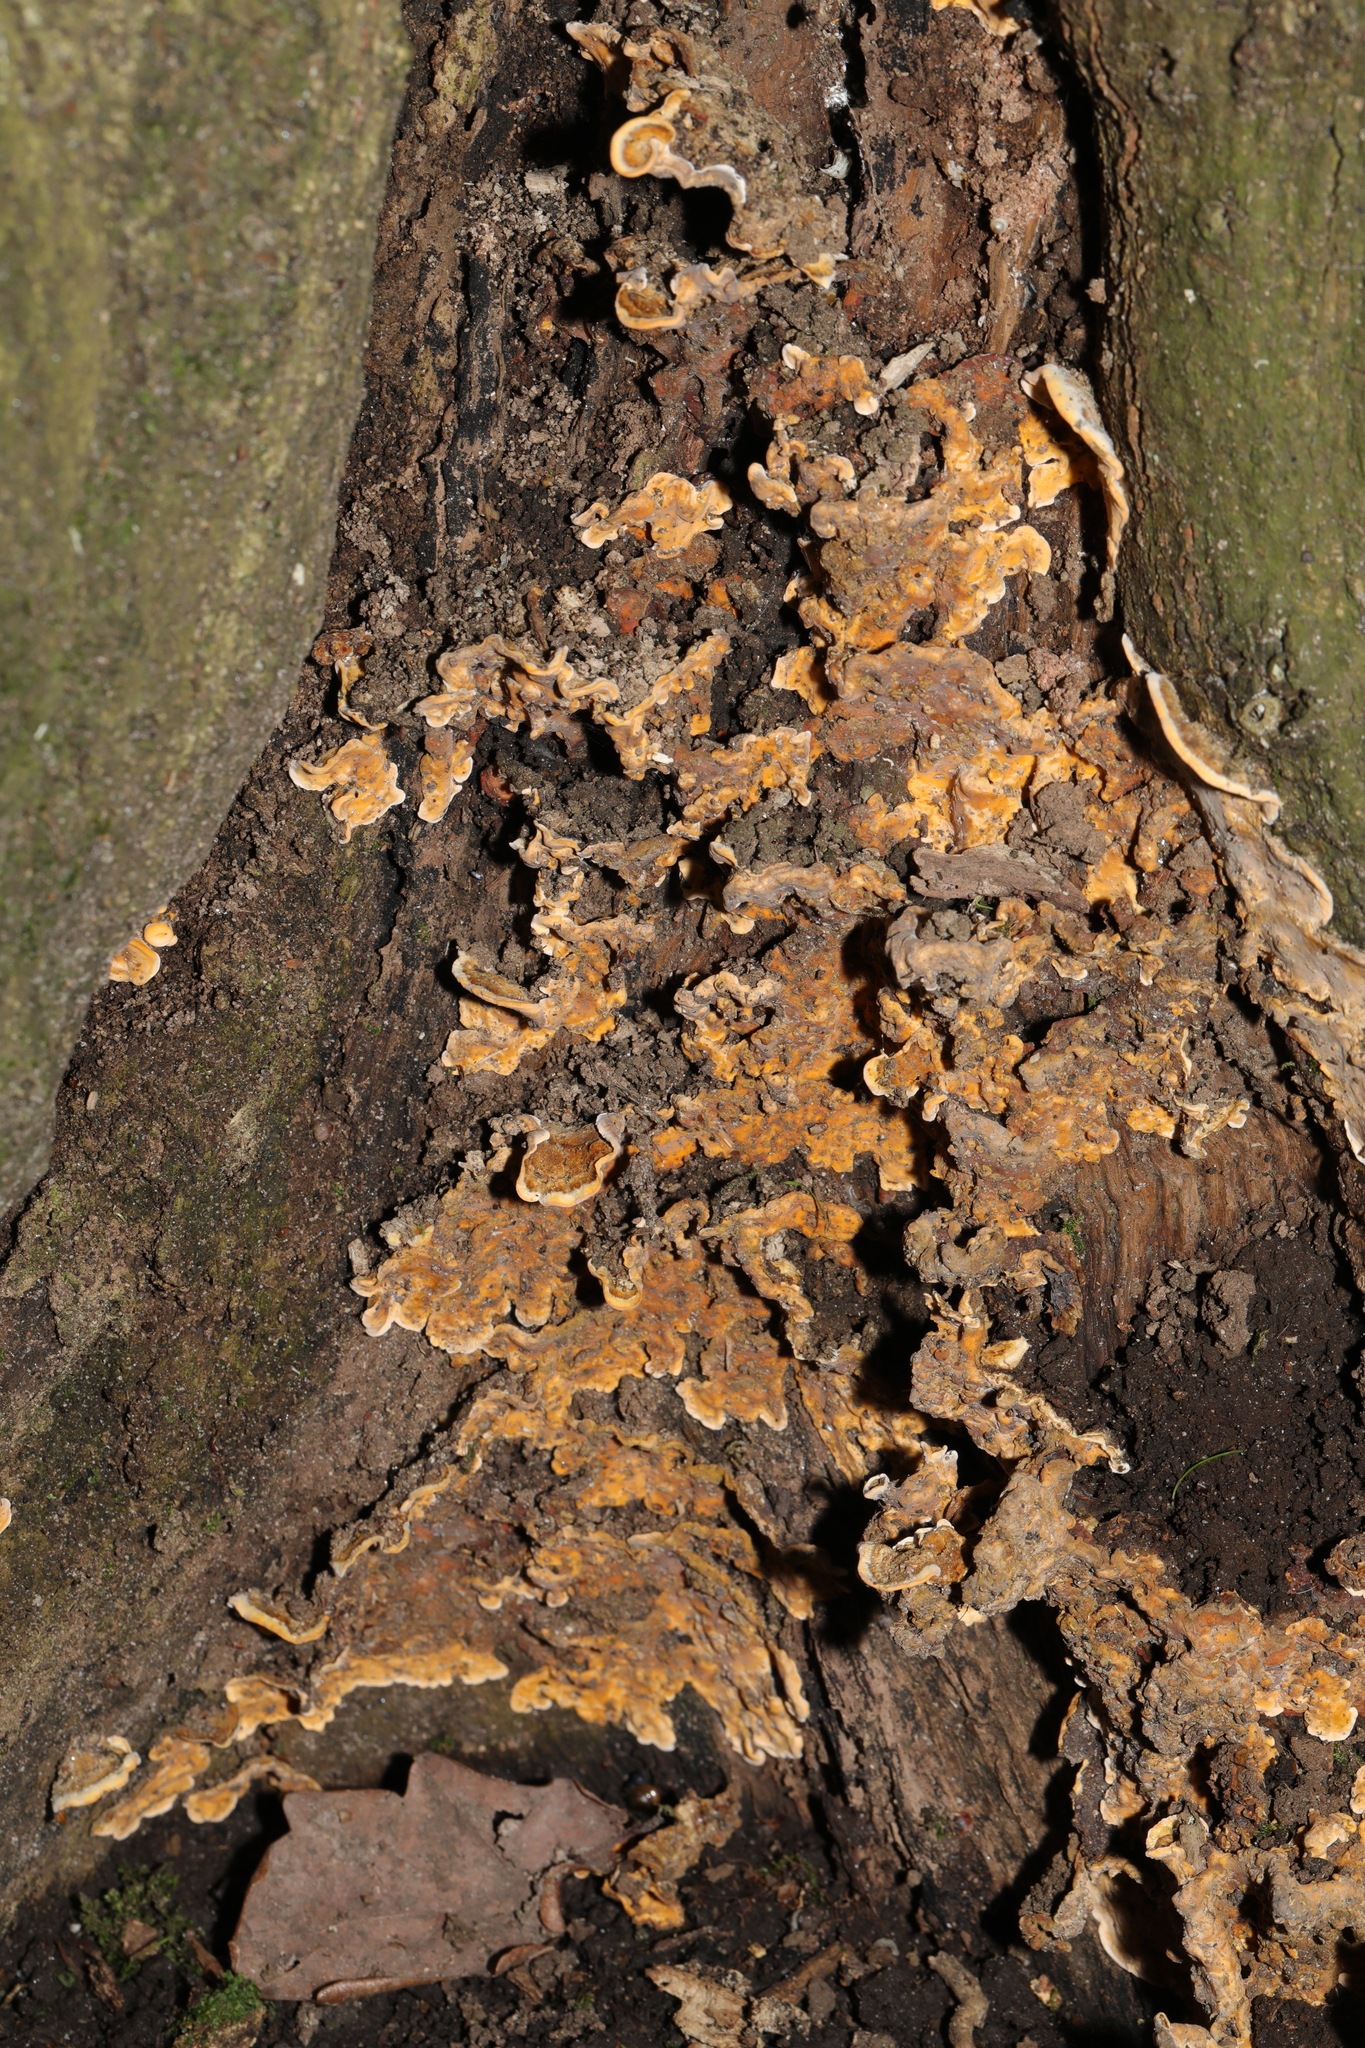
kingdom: Fungi
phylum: Basidiomycota
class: Agaricomycetes
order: Russulales
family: Stereaceae
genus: Stereum
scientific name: Stereum hirsutum
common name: Hairy curtain crust
